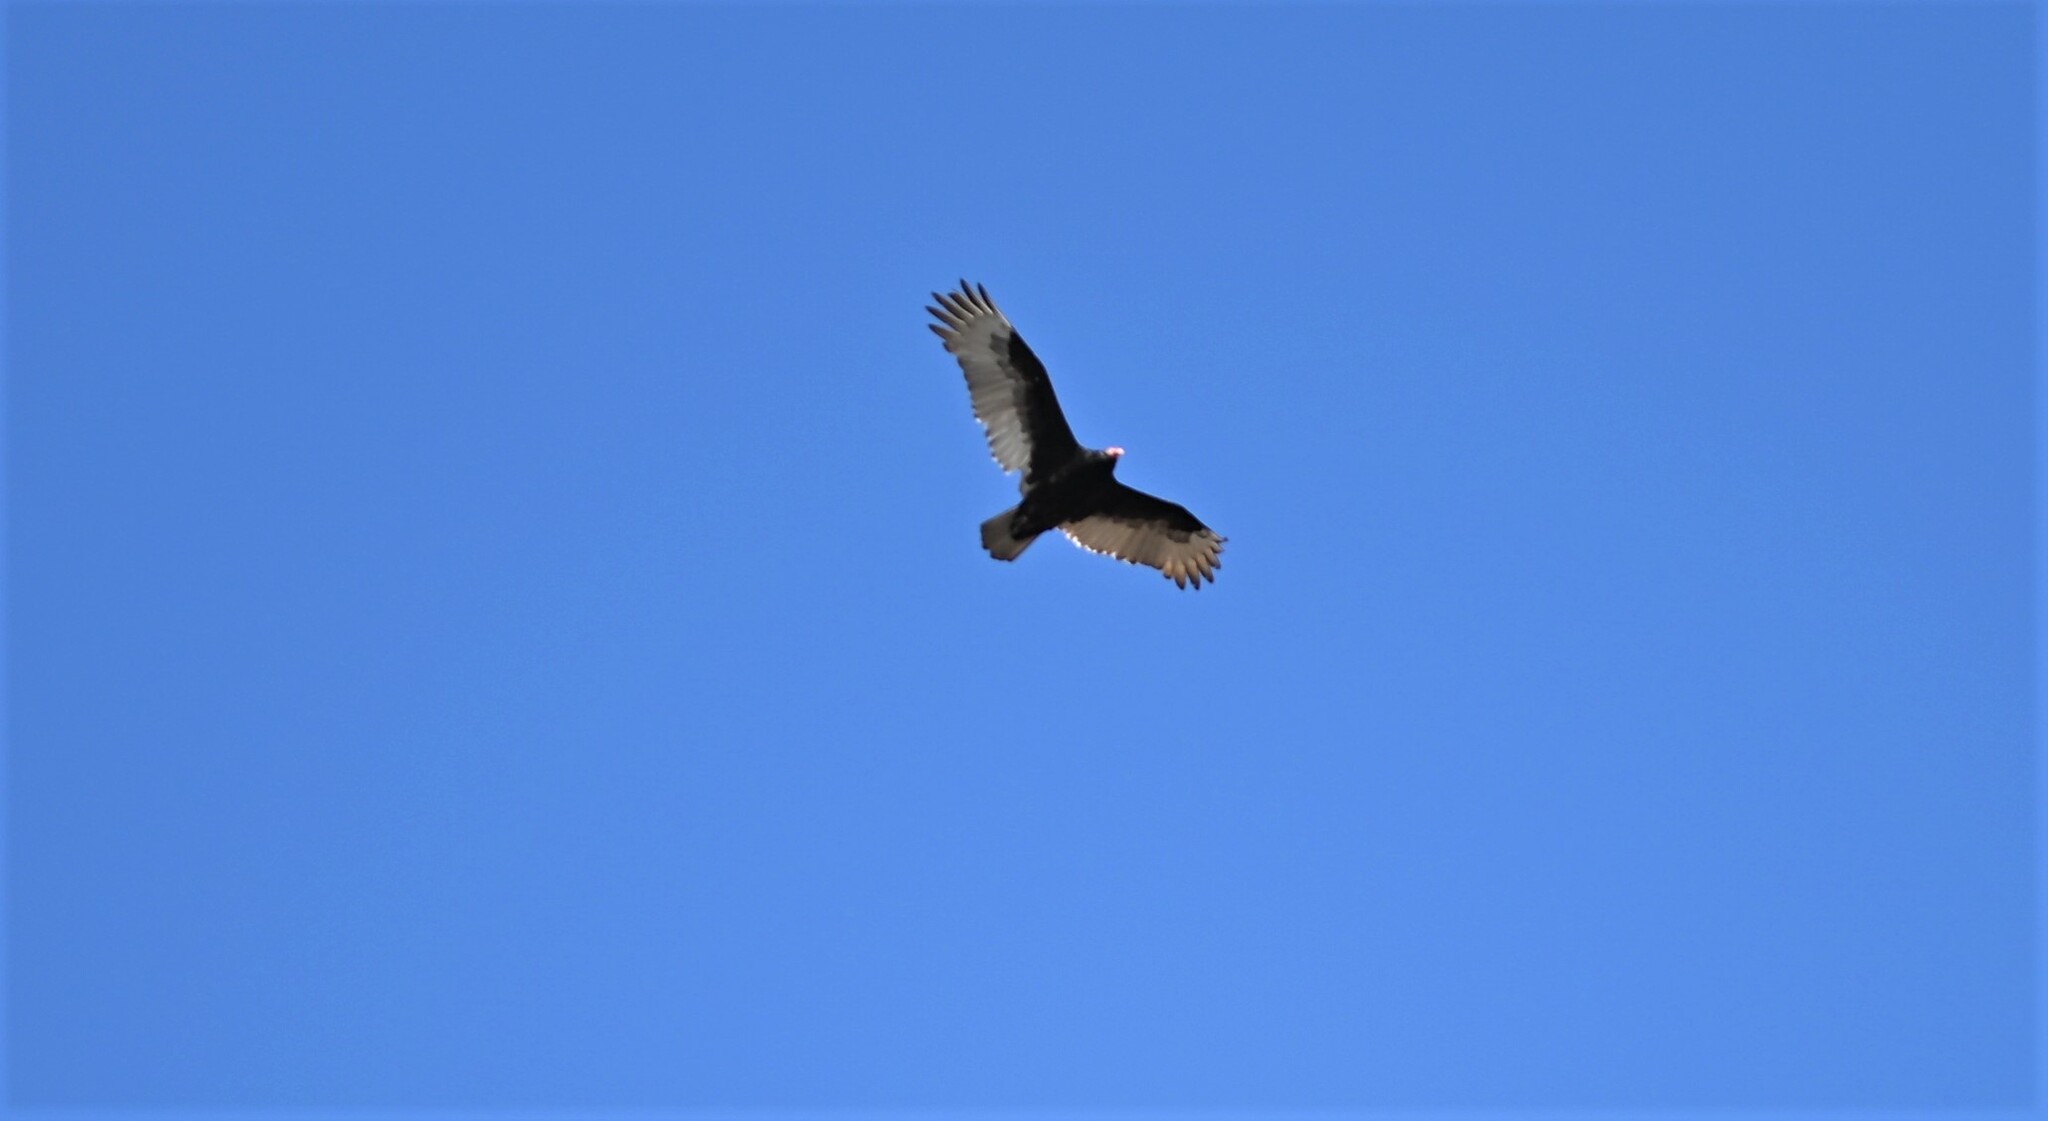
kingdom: Animalia
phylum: Chordata
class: Aves
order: Accipitriformes
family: Cathartidae
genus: Cathartes
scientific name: Cathartes aura
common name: Turkey vulture
